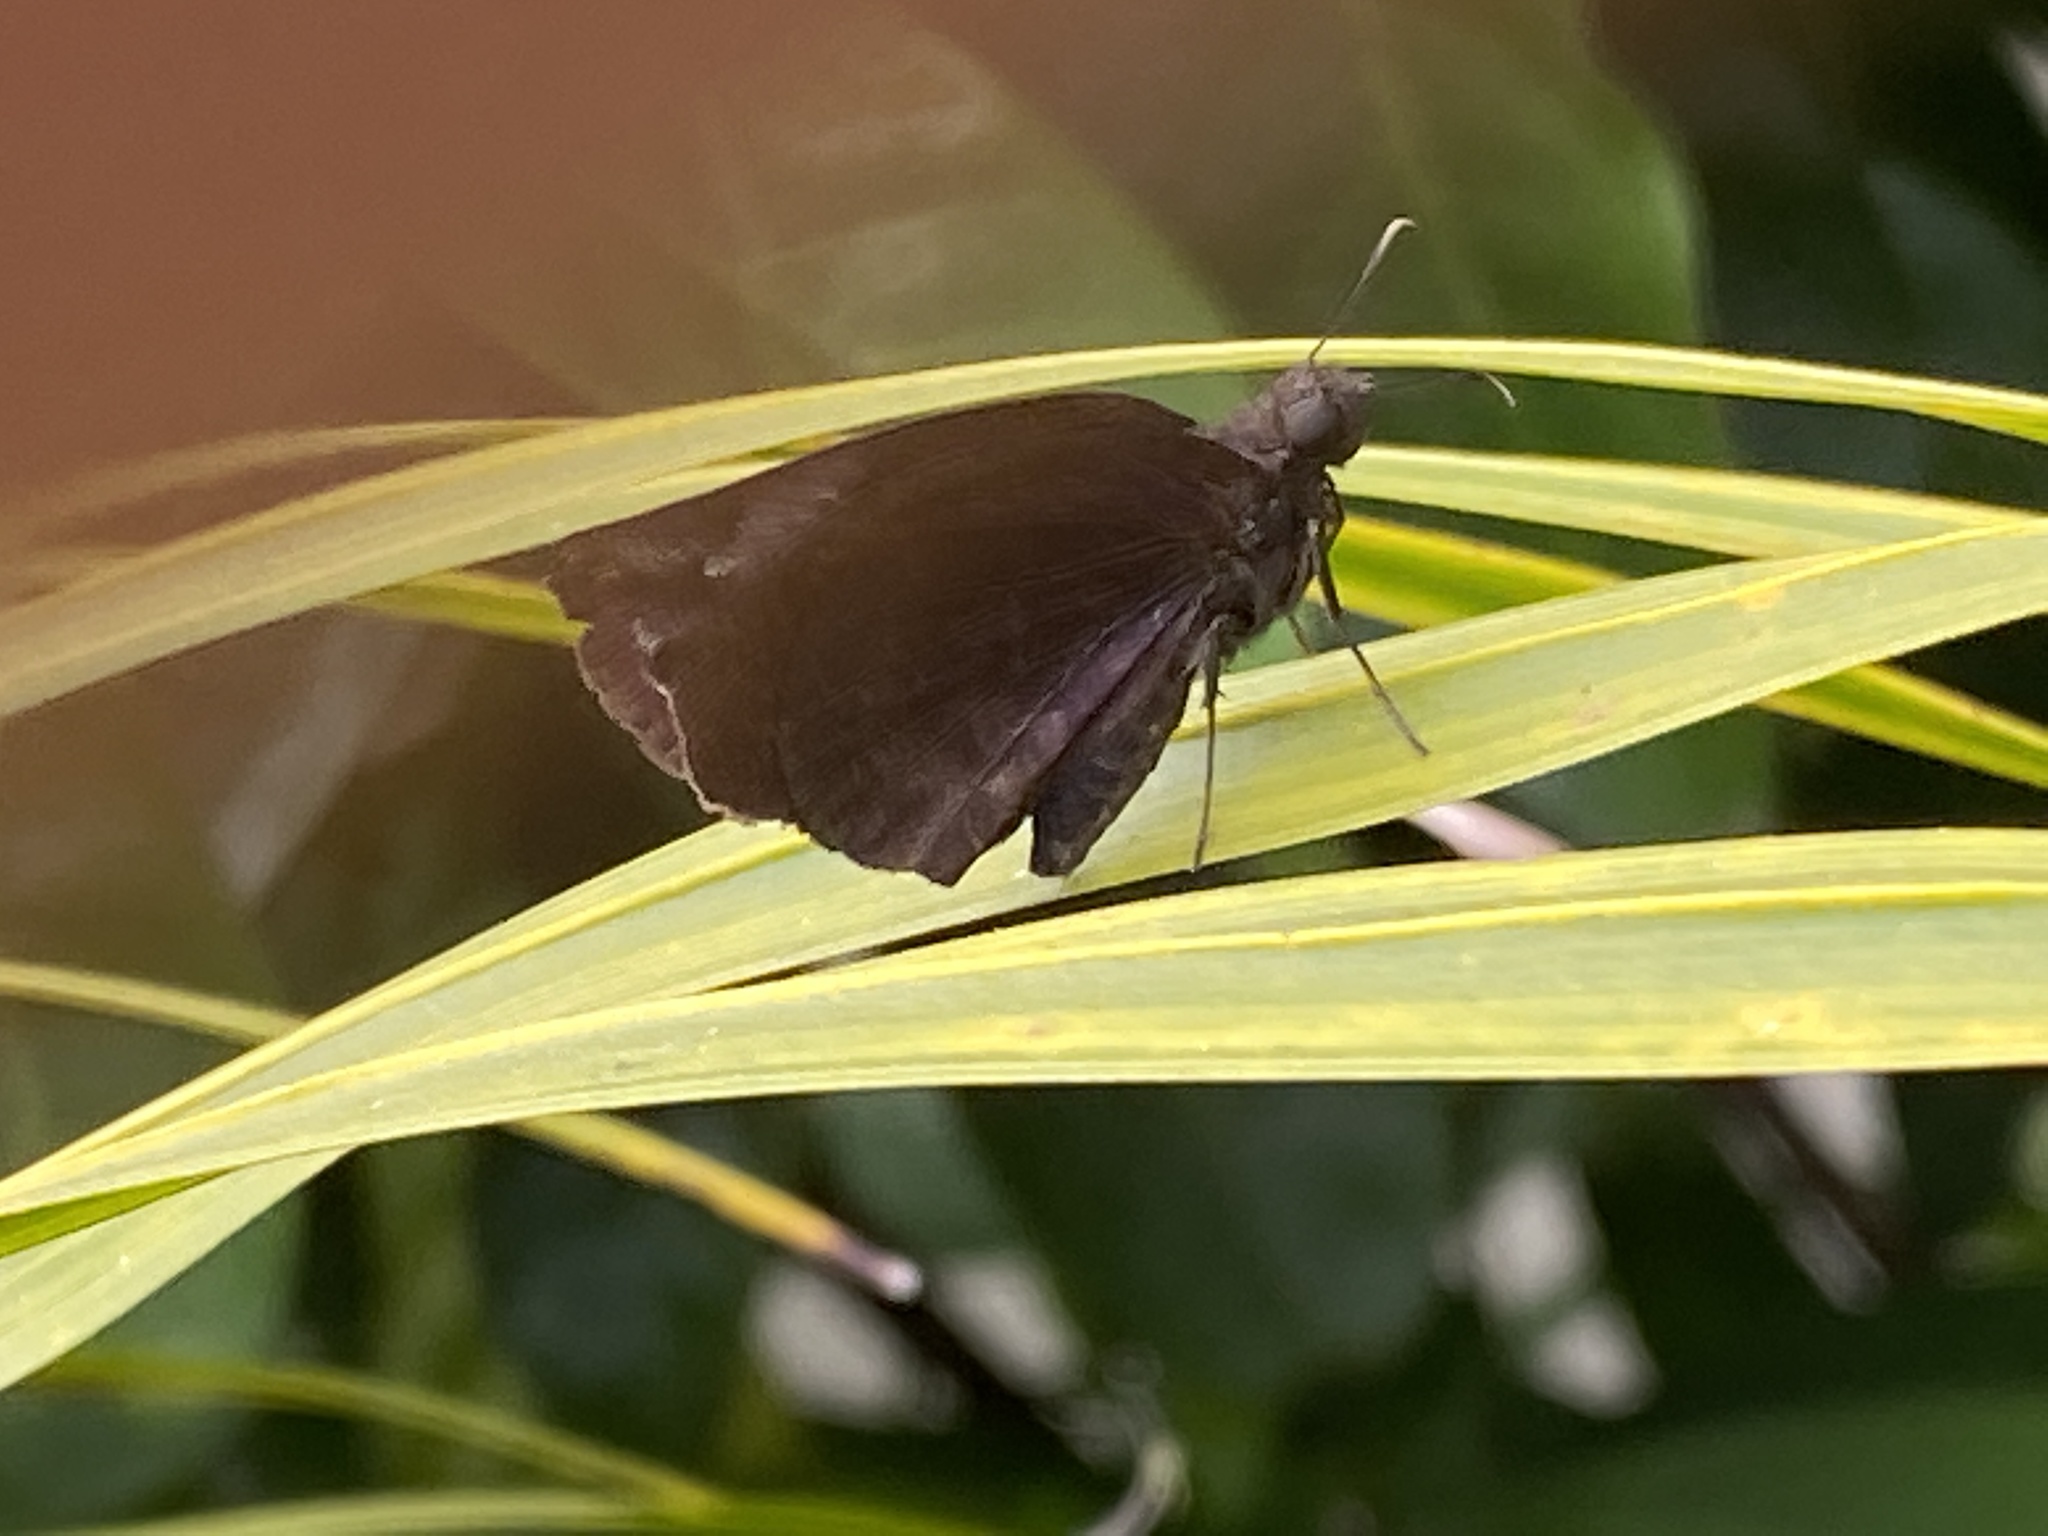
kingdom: Animalia
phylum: Arthropoda
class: Insecta
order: Lepidoptera
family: Hesperiidae
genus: Achlyodes
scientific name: Achlyodes thraso
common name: Sickle-winged skipper
